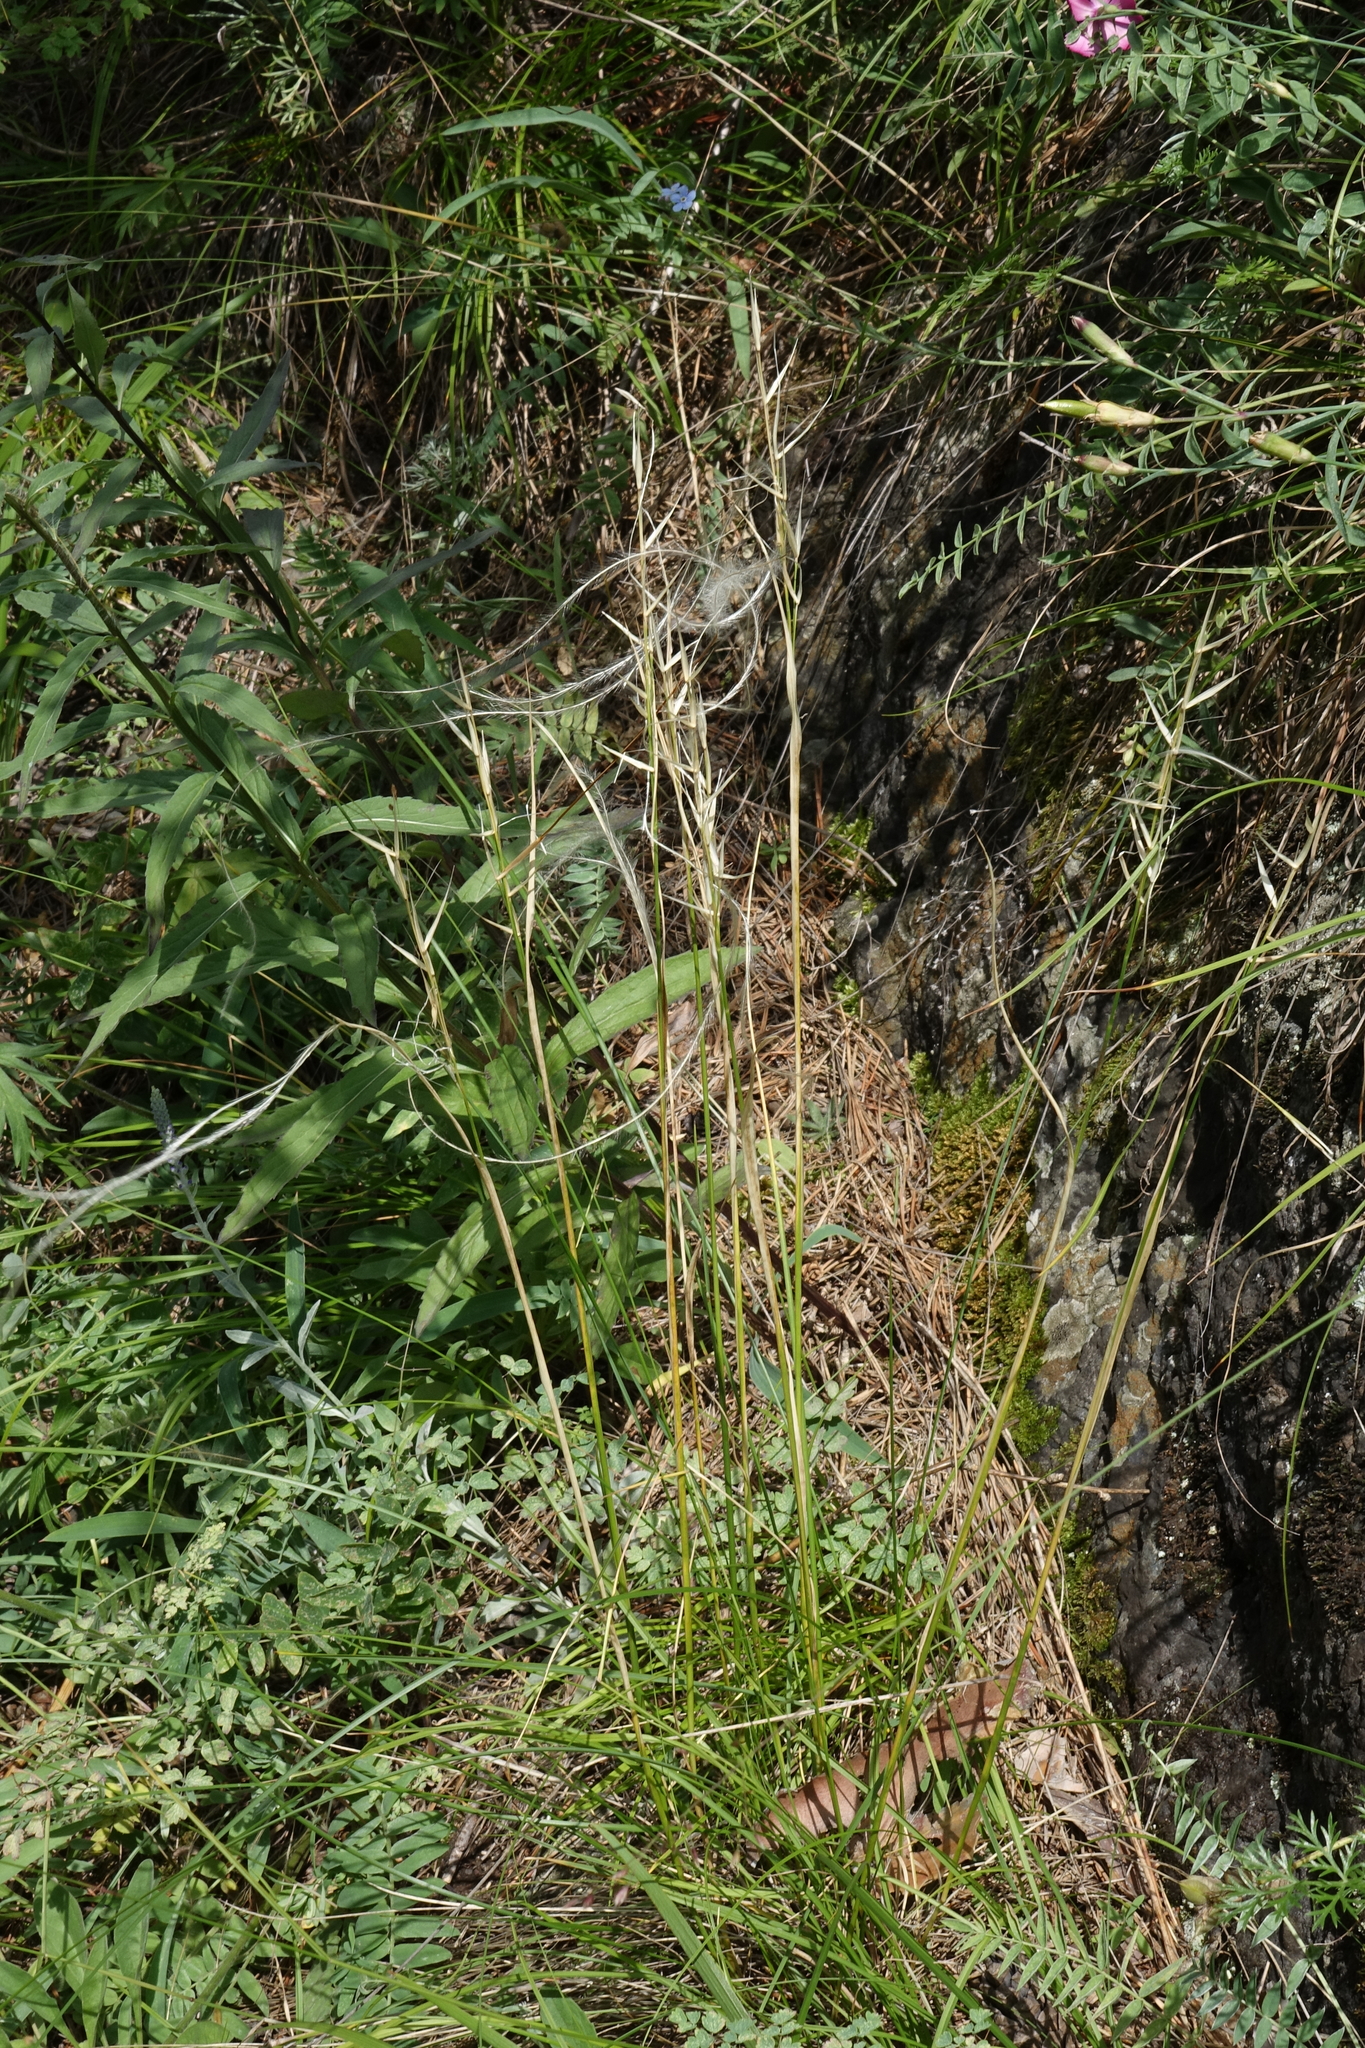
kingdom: Plantae
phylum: Tracheophyta
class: Liliopsida
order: Poales
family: Poaceae
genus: Stipa
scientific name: Stipa pennata
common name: European feather grass
